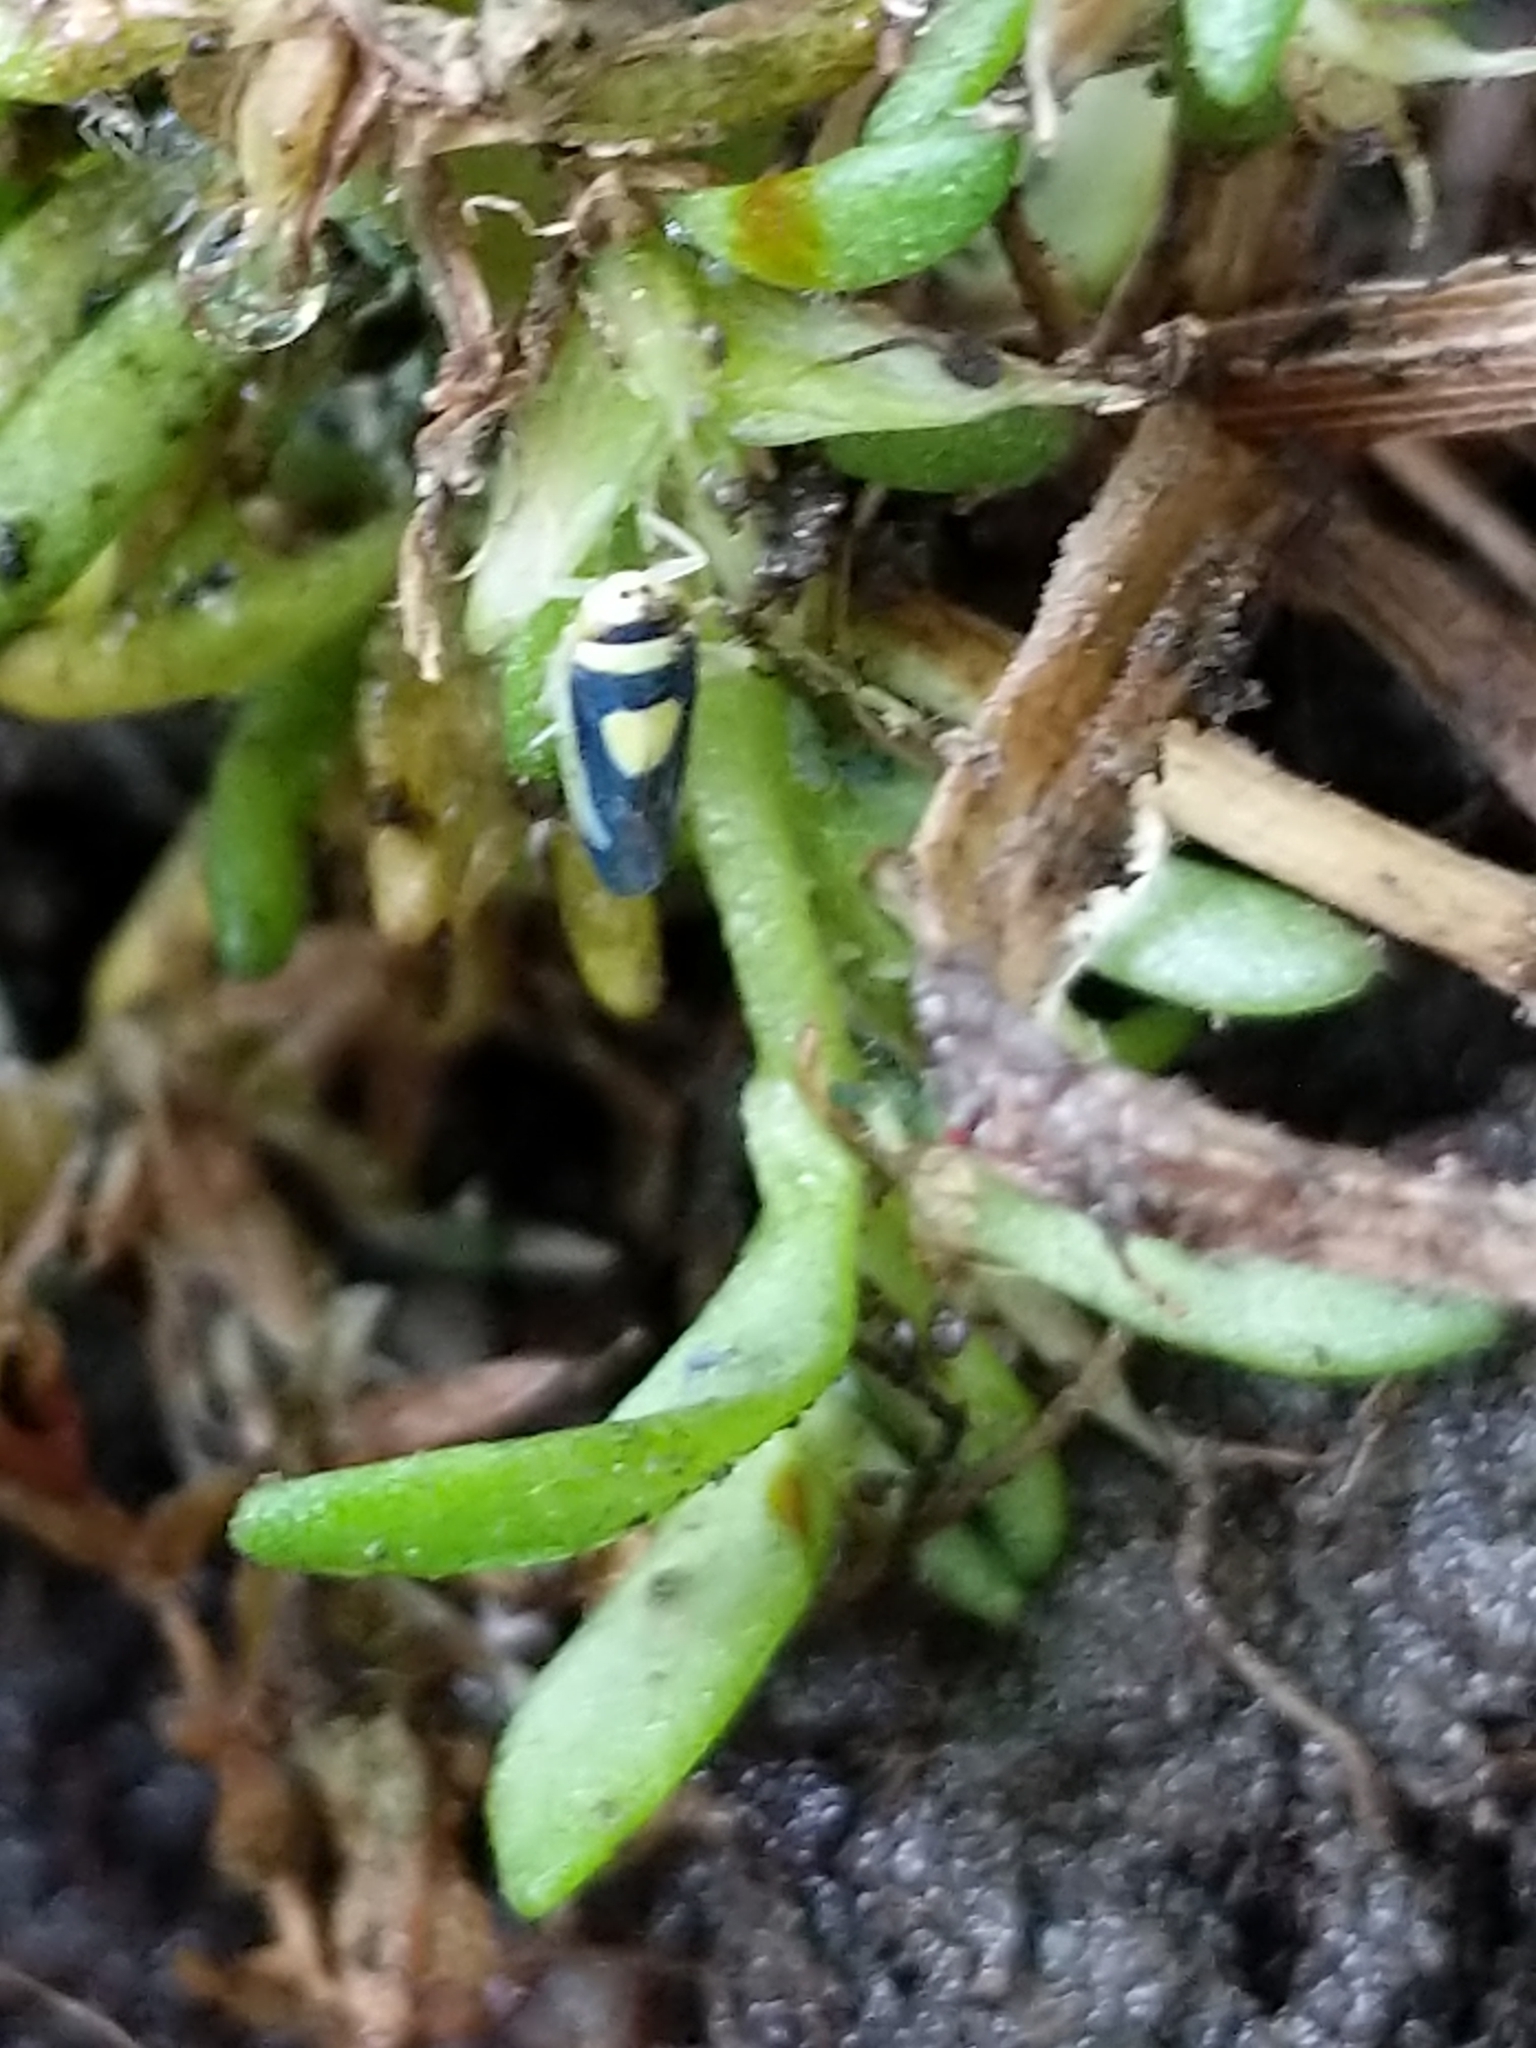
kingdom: Animalia
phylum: Arthropoda
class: Insecta
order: Hemiptera
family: Cicadellidae
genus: Colladonus
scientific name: Colladonus clitellarius
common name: The saddleback leafhopper
